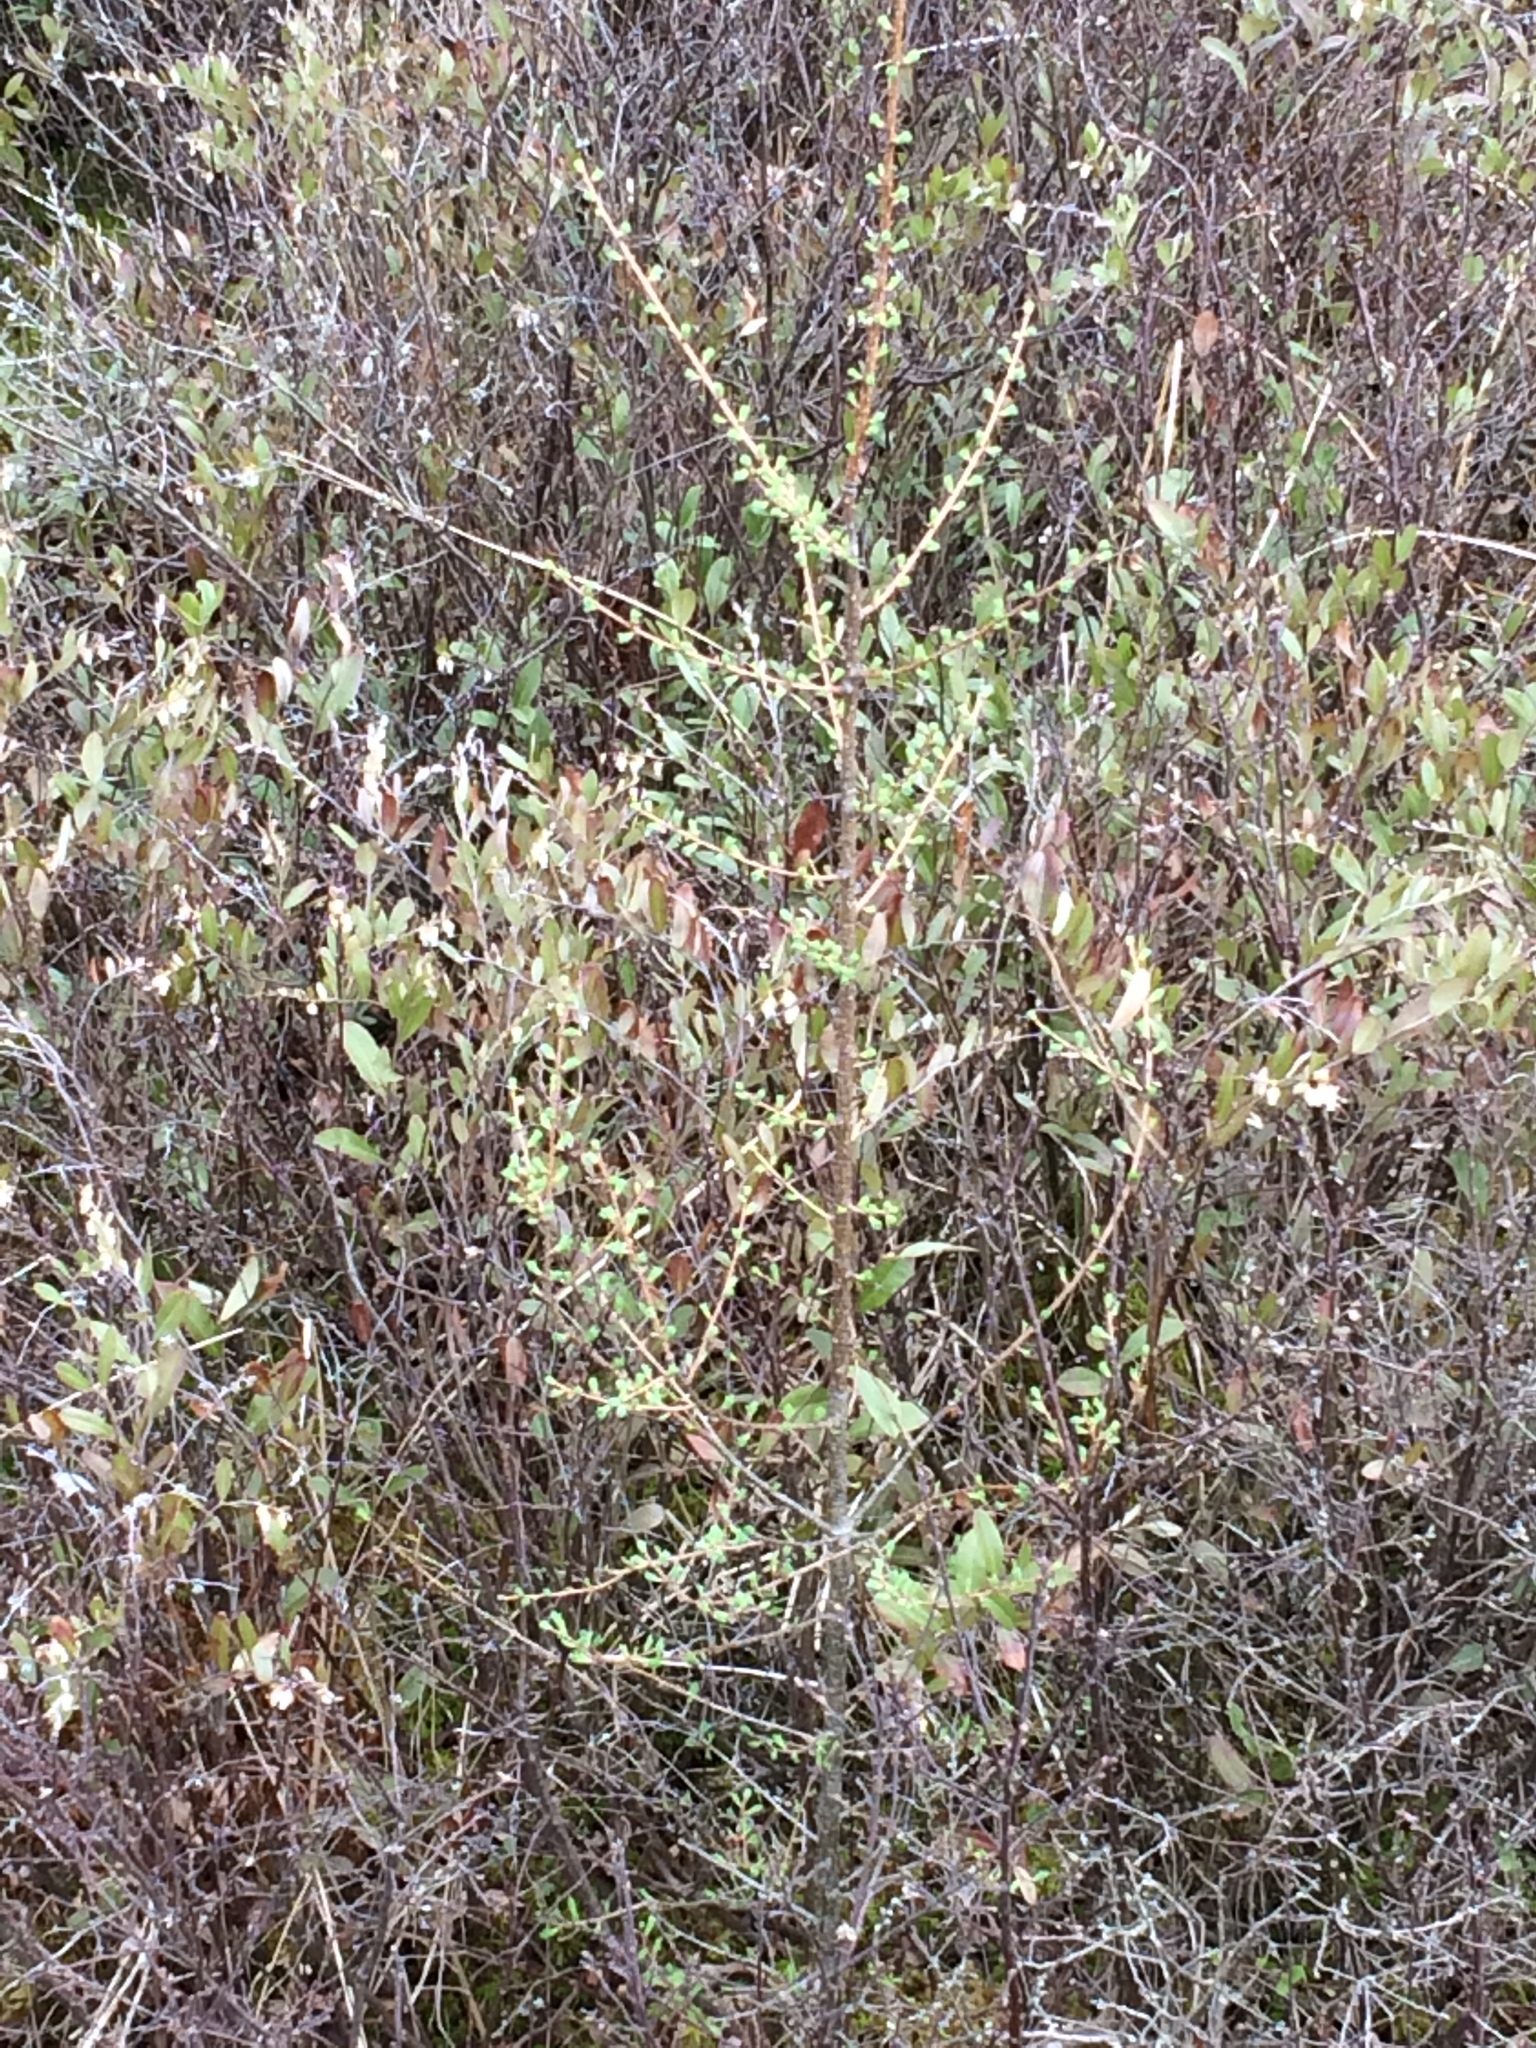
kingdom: Plantae
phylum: Tracheophyta
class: Pinopsida
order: Pinales
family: Pinaceae
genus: Larix
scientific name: Larix laricina
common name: American larch
